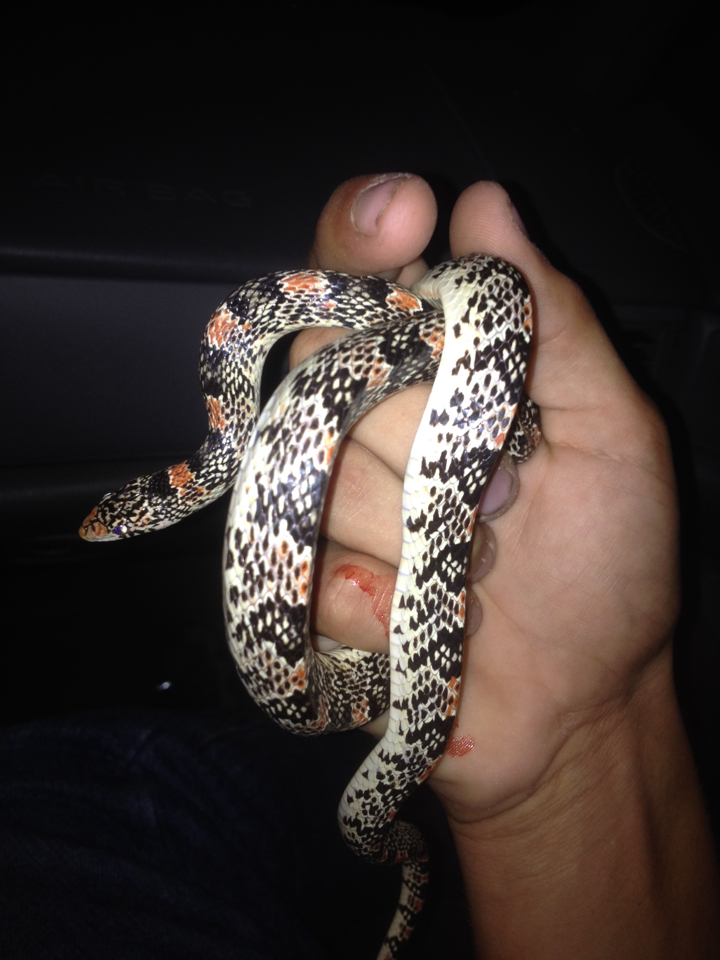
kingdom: Animalia
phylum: Chordata
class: Squamata
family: Colubridae
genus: Rhinocheilus
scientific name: Rhinocheilus lecontei
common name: Longnose snake
